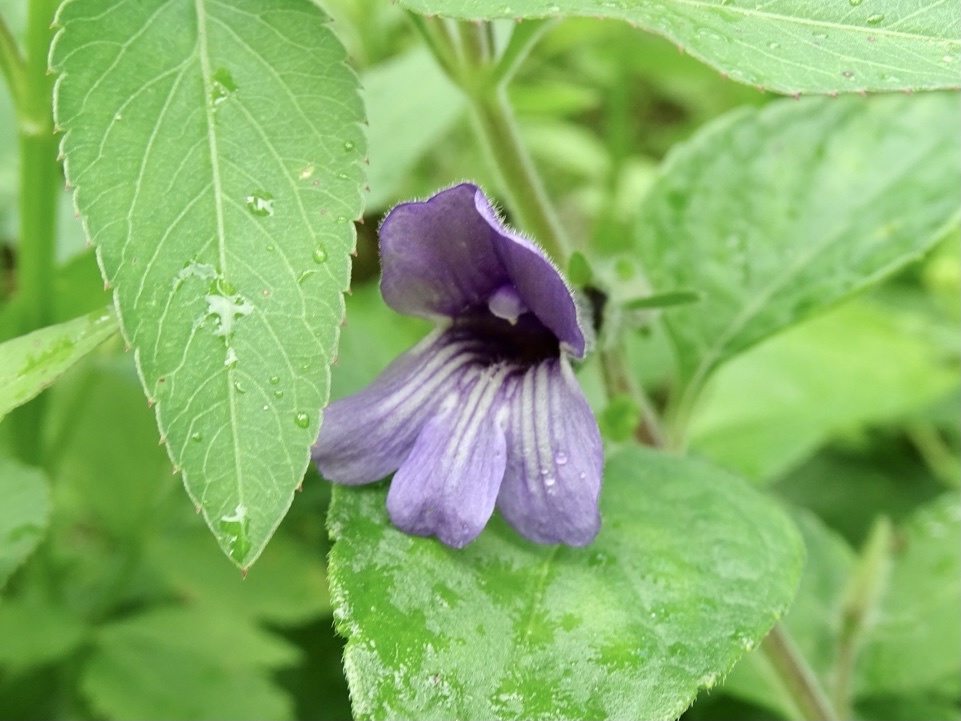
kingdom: Plantae
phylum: Tracheophyta
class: Magnoliopsida
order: Lamiales
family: Plantaginaceae
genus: Adenosma
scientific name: Adenosma glutinosa
